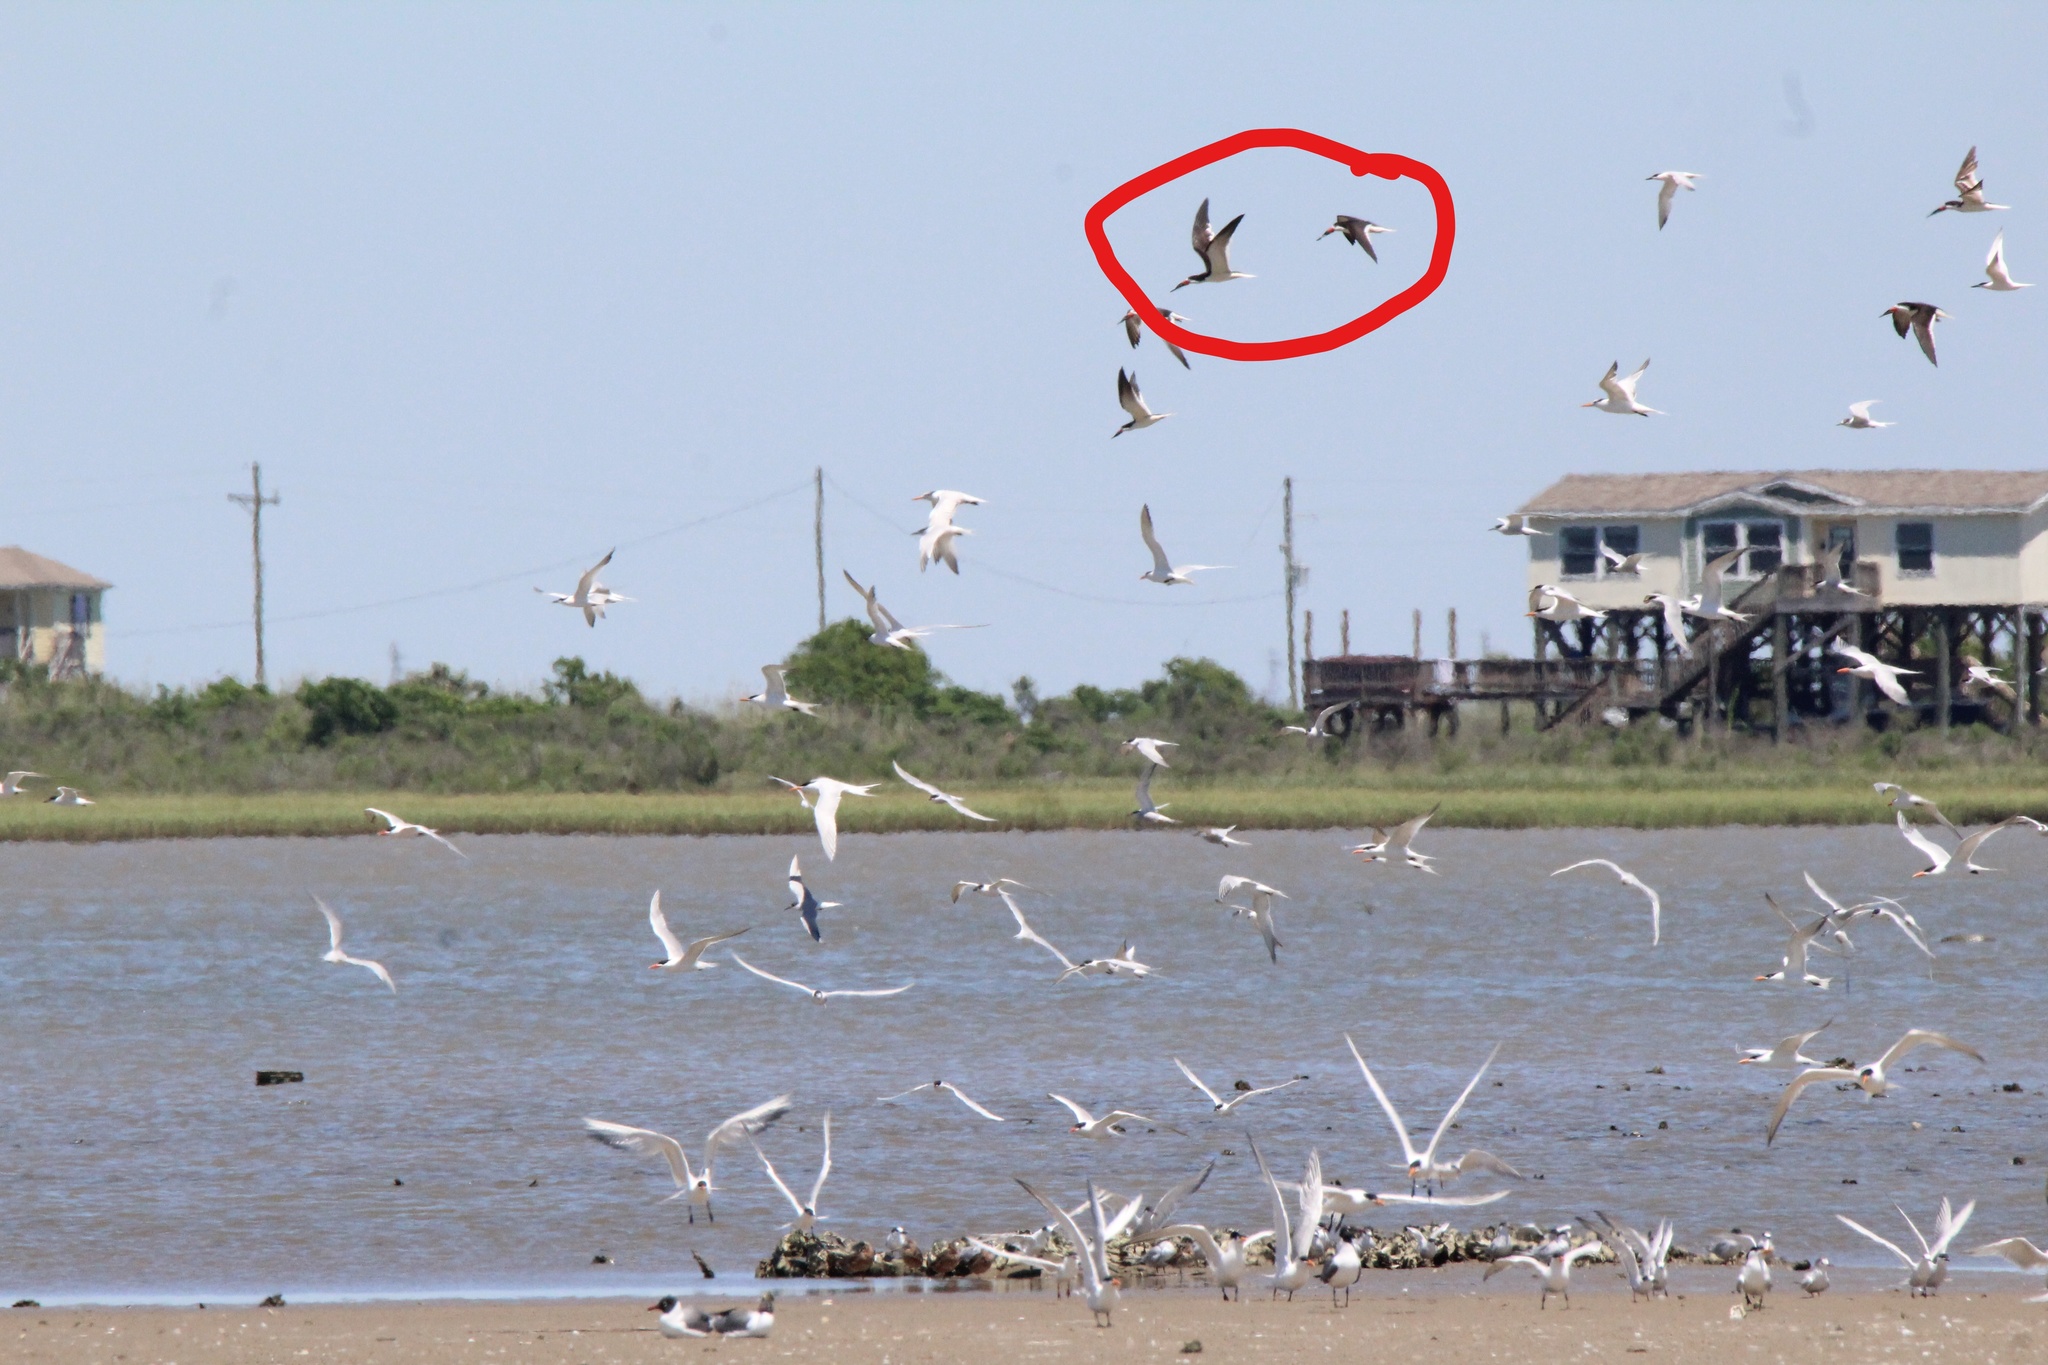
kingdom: Animalia
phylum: Chordata
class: Aves
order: Charadriiformes
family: Laridae
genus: Rynchops
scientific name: Rynchops niger
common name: Black skimmer
